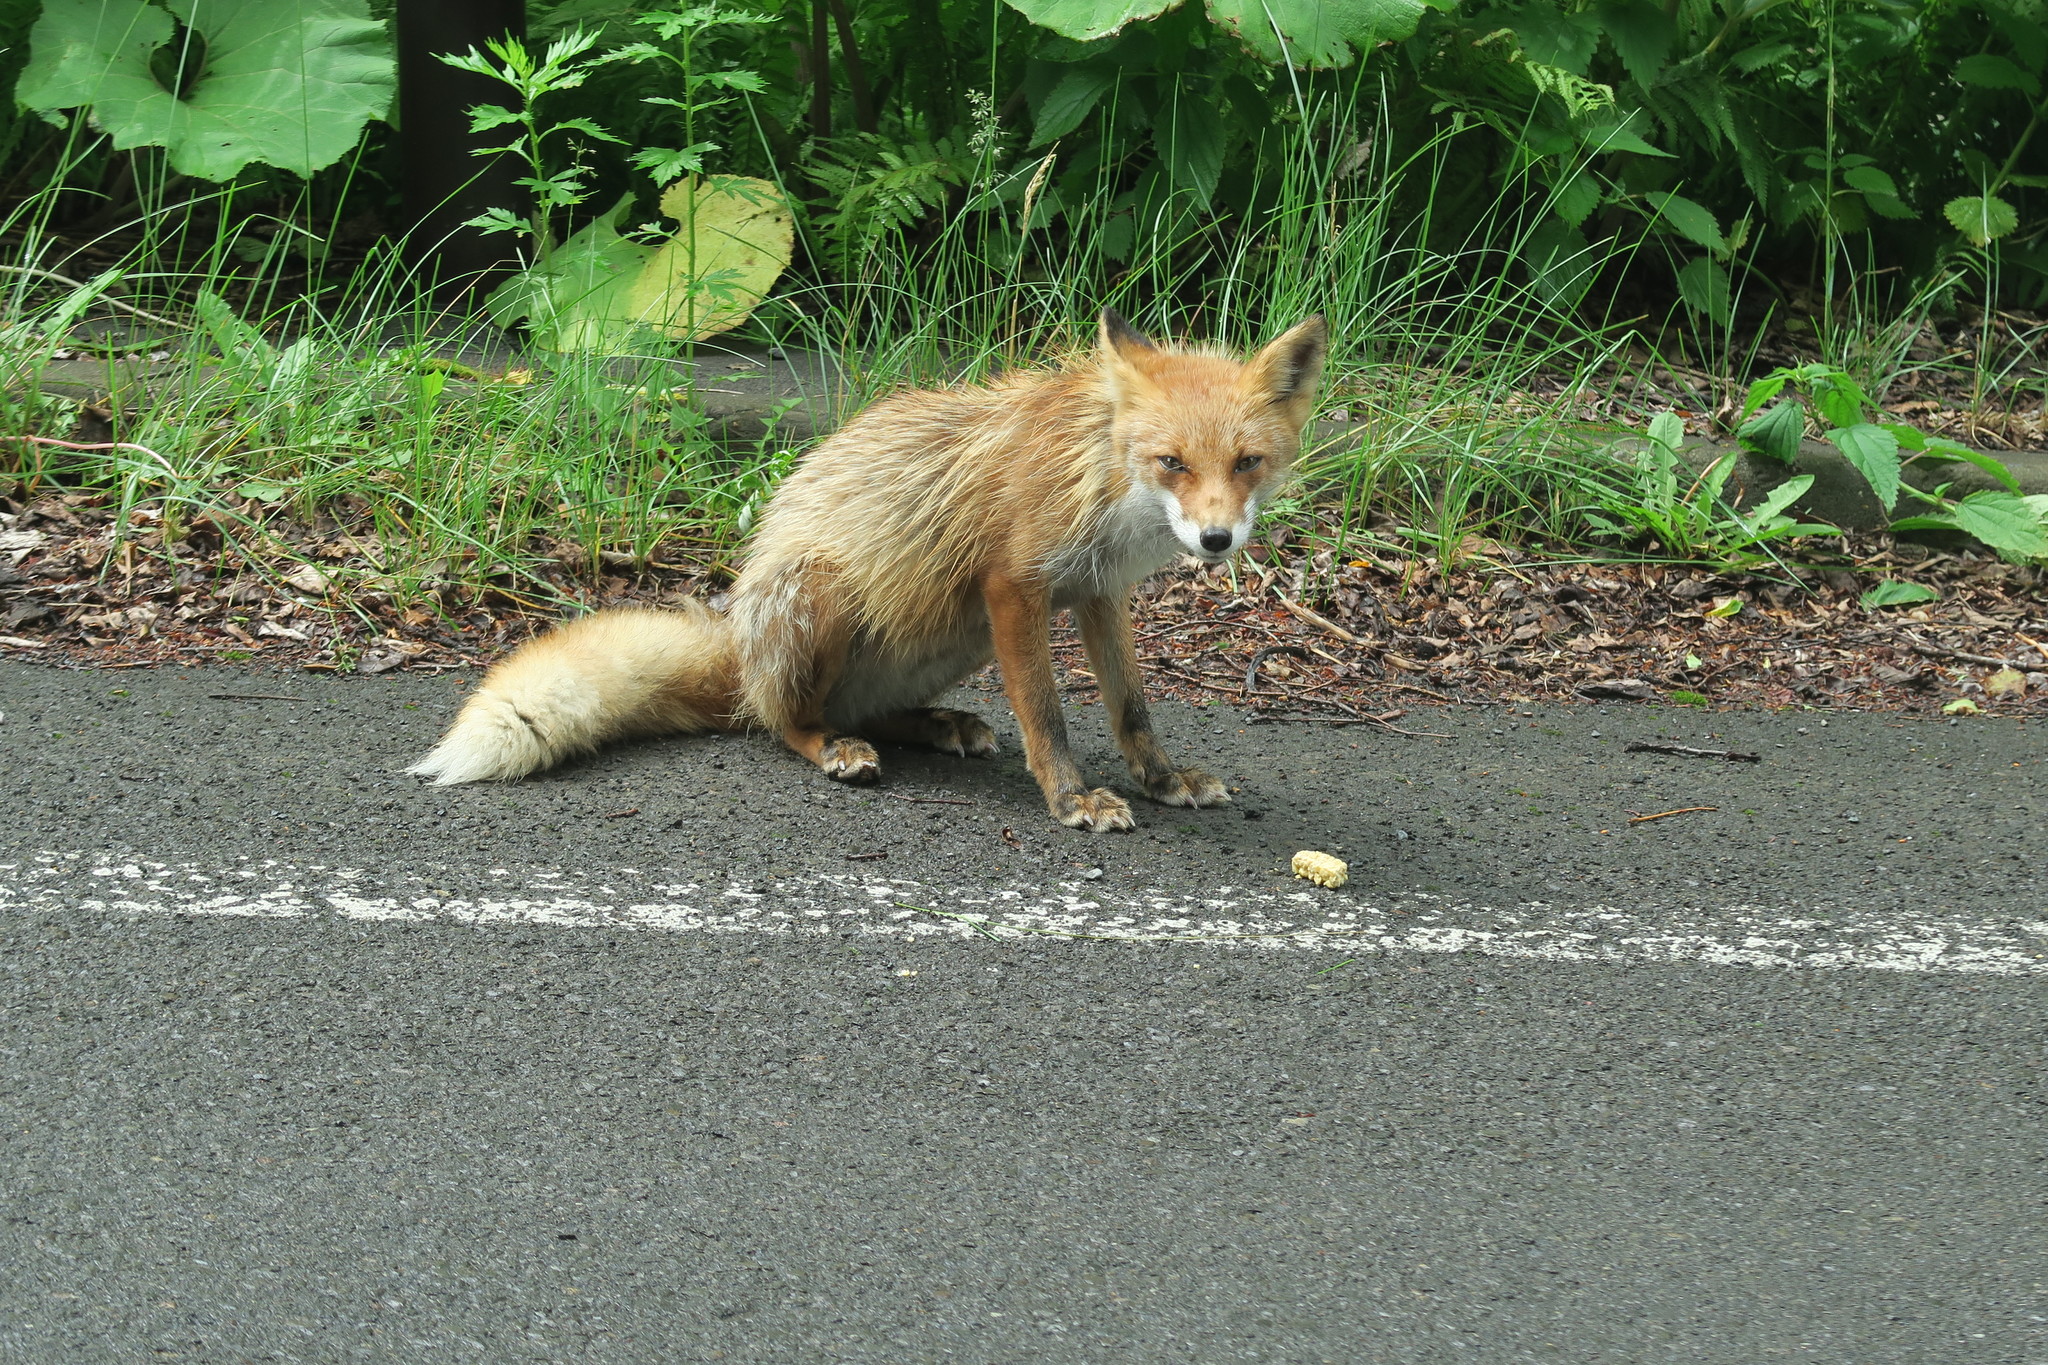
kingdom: Animalia
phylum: Chordata
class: Mammalia
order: Carnivora
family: Canidae
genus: Vulpes
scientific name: Vulpes vulpes
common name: Red fox
